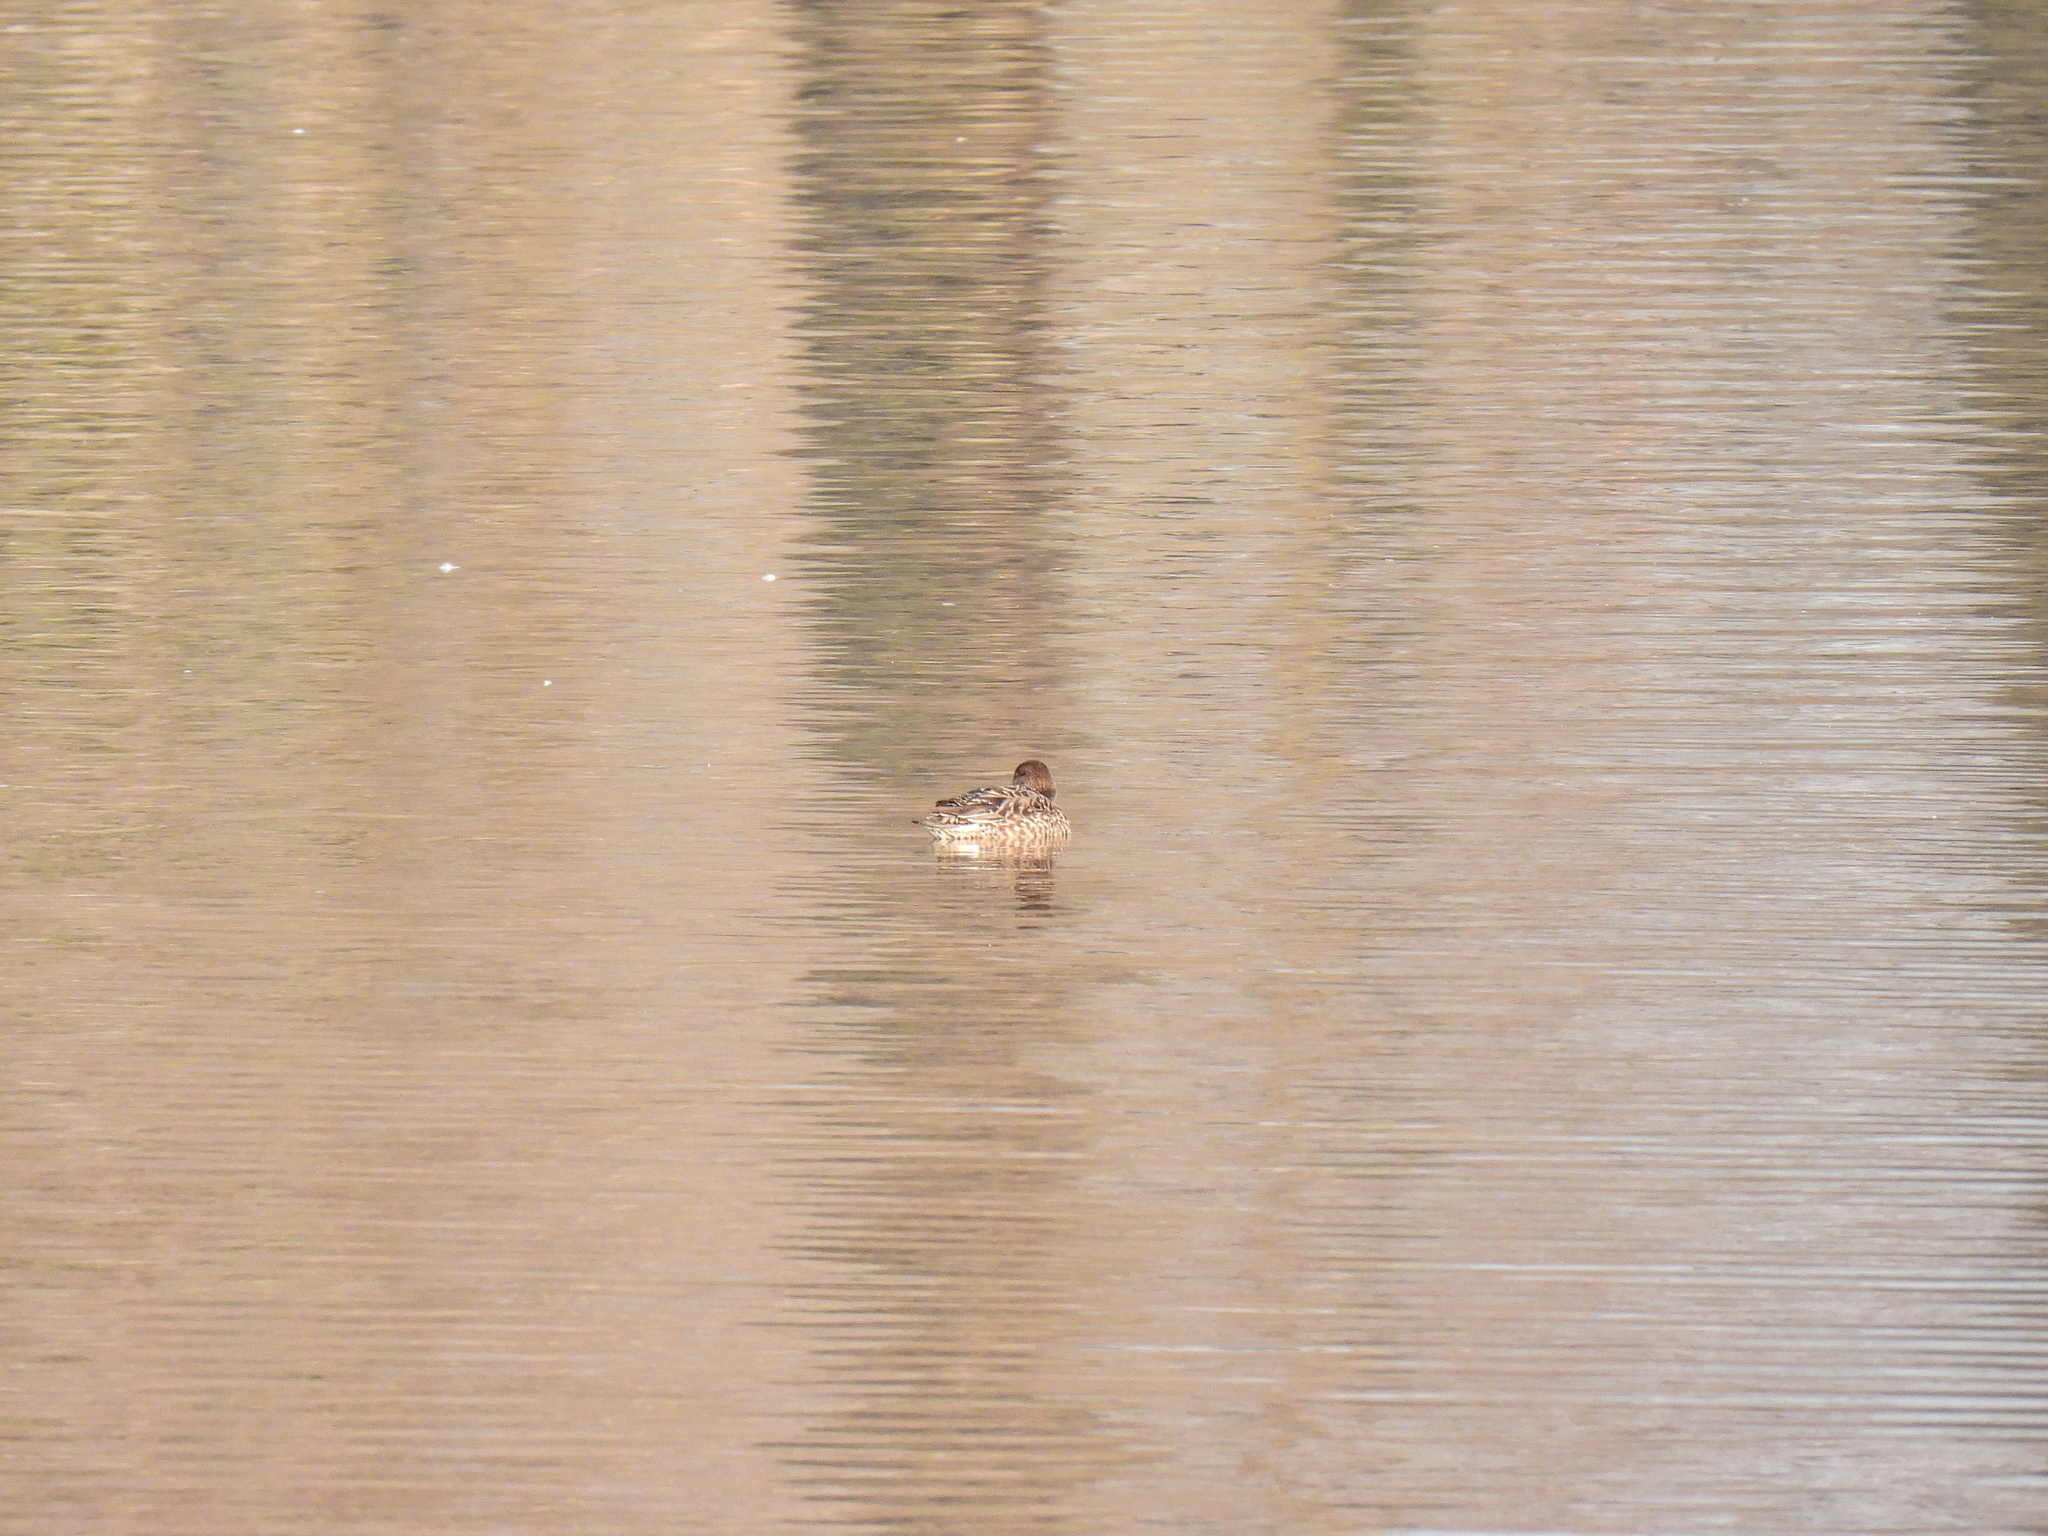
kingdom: Animalia
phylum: Chordata
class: Aves
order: Anseriformes
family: Anatidae
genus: Anas
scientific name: Anas crecca
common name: Eurasian teal
